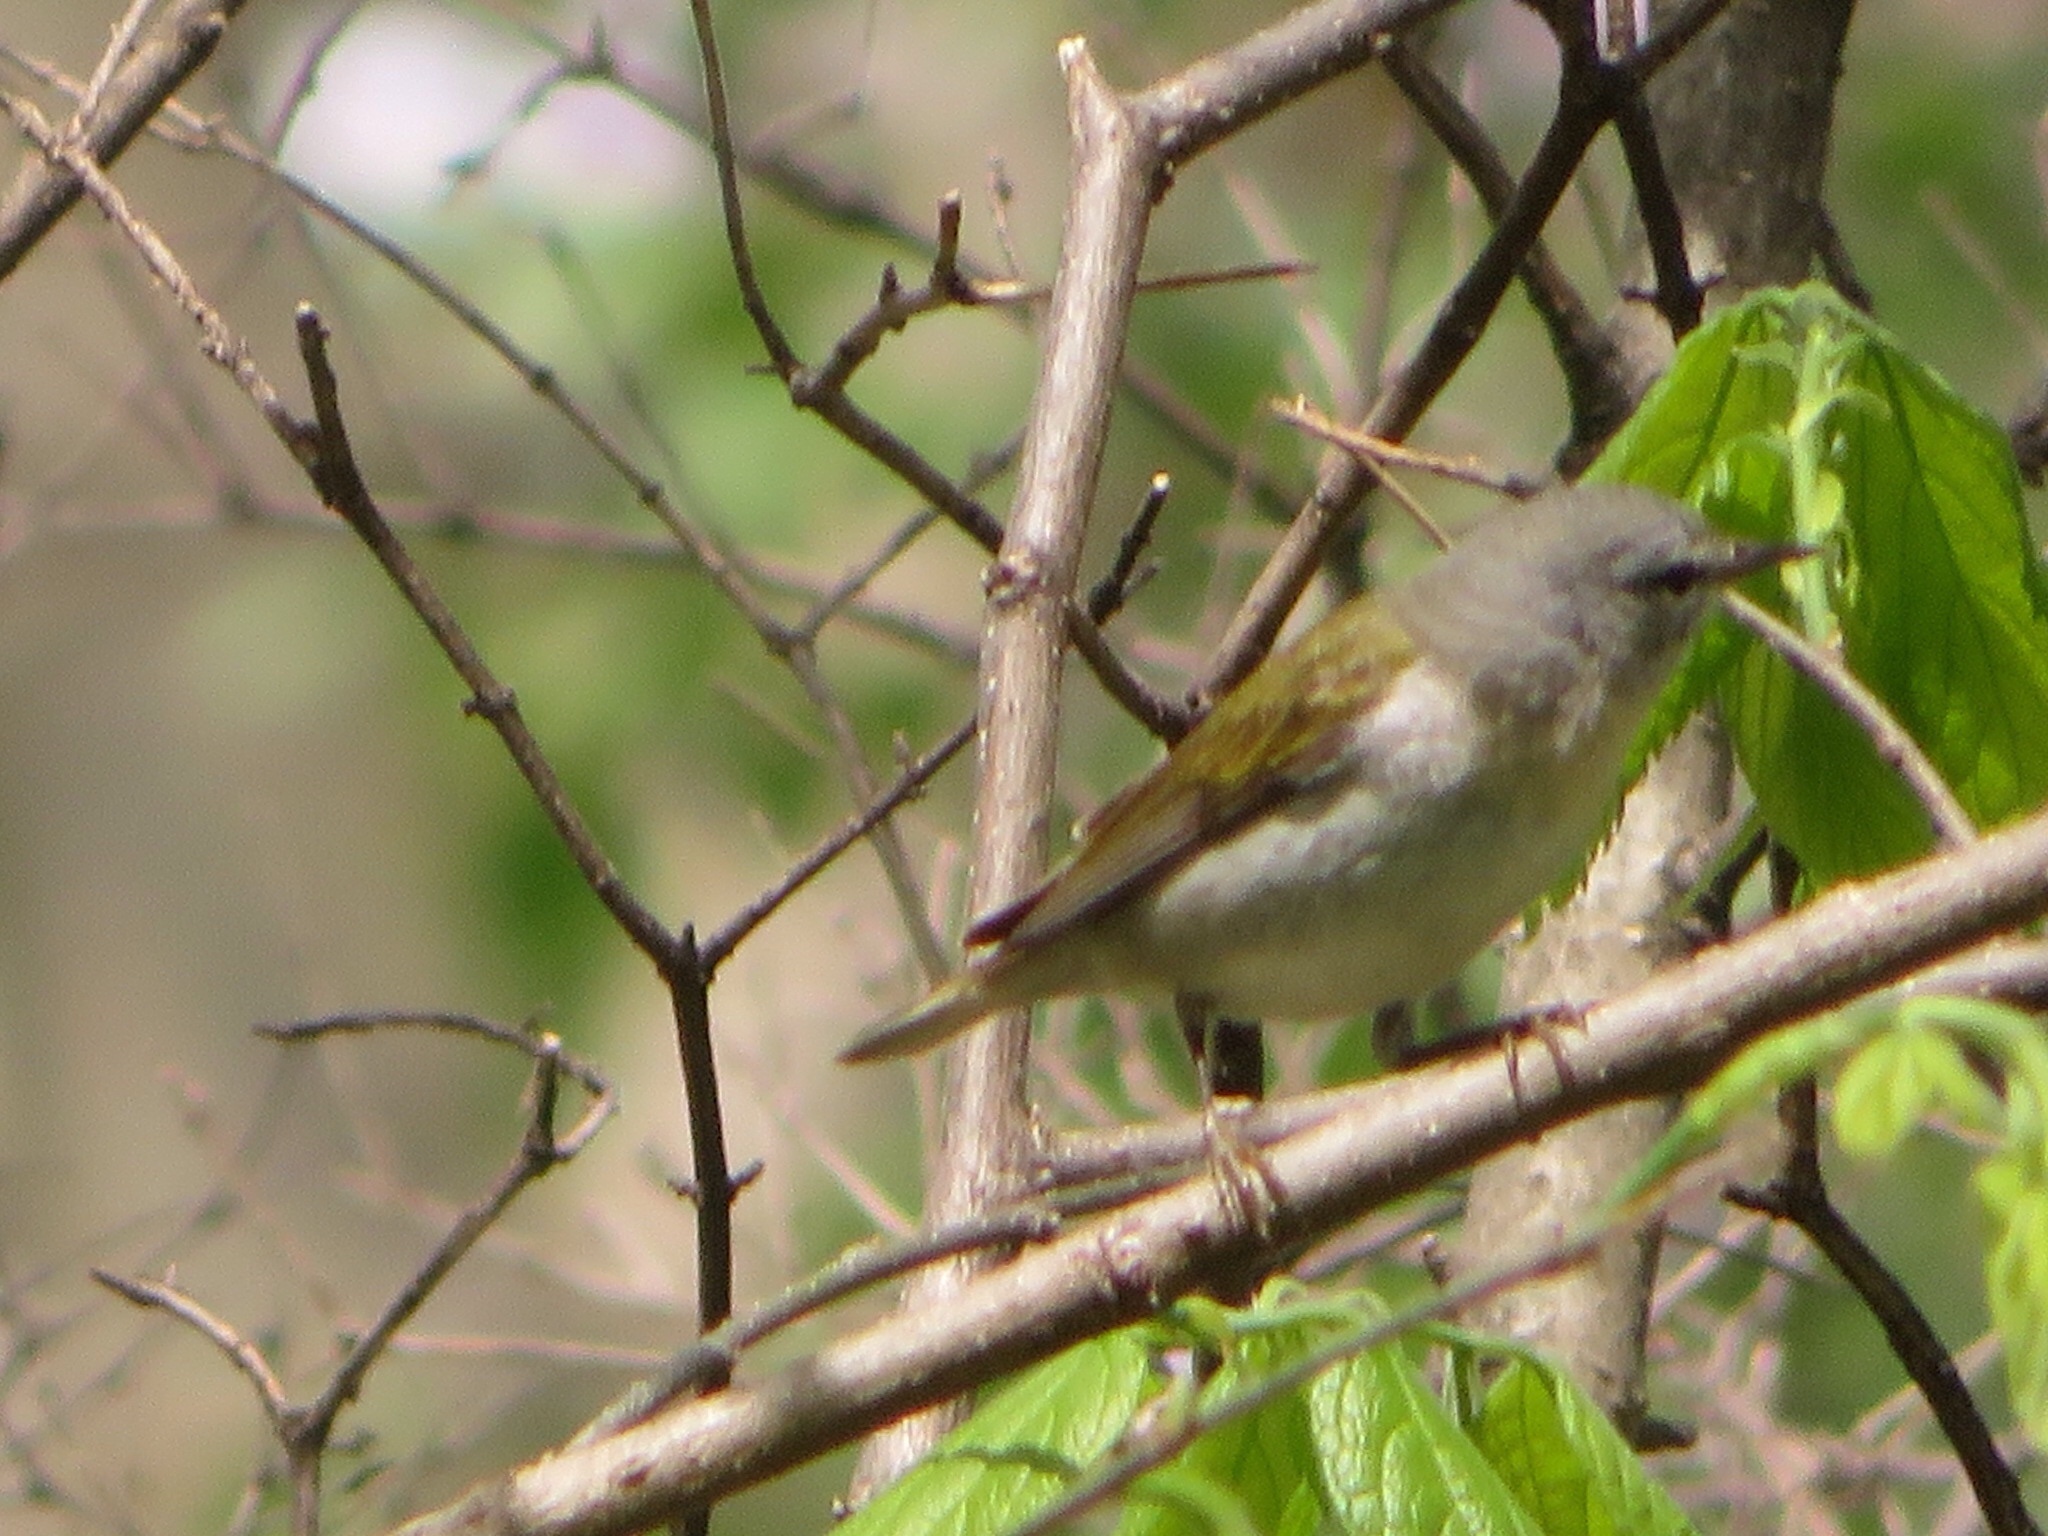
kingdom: Animalia
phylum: Chordata
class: Aves
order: Passeriformes
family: Parulidae
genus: Leiothlypis
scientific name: Leiothlypis peregrina
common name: Tennessee warbler
